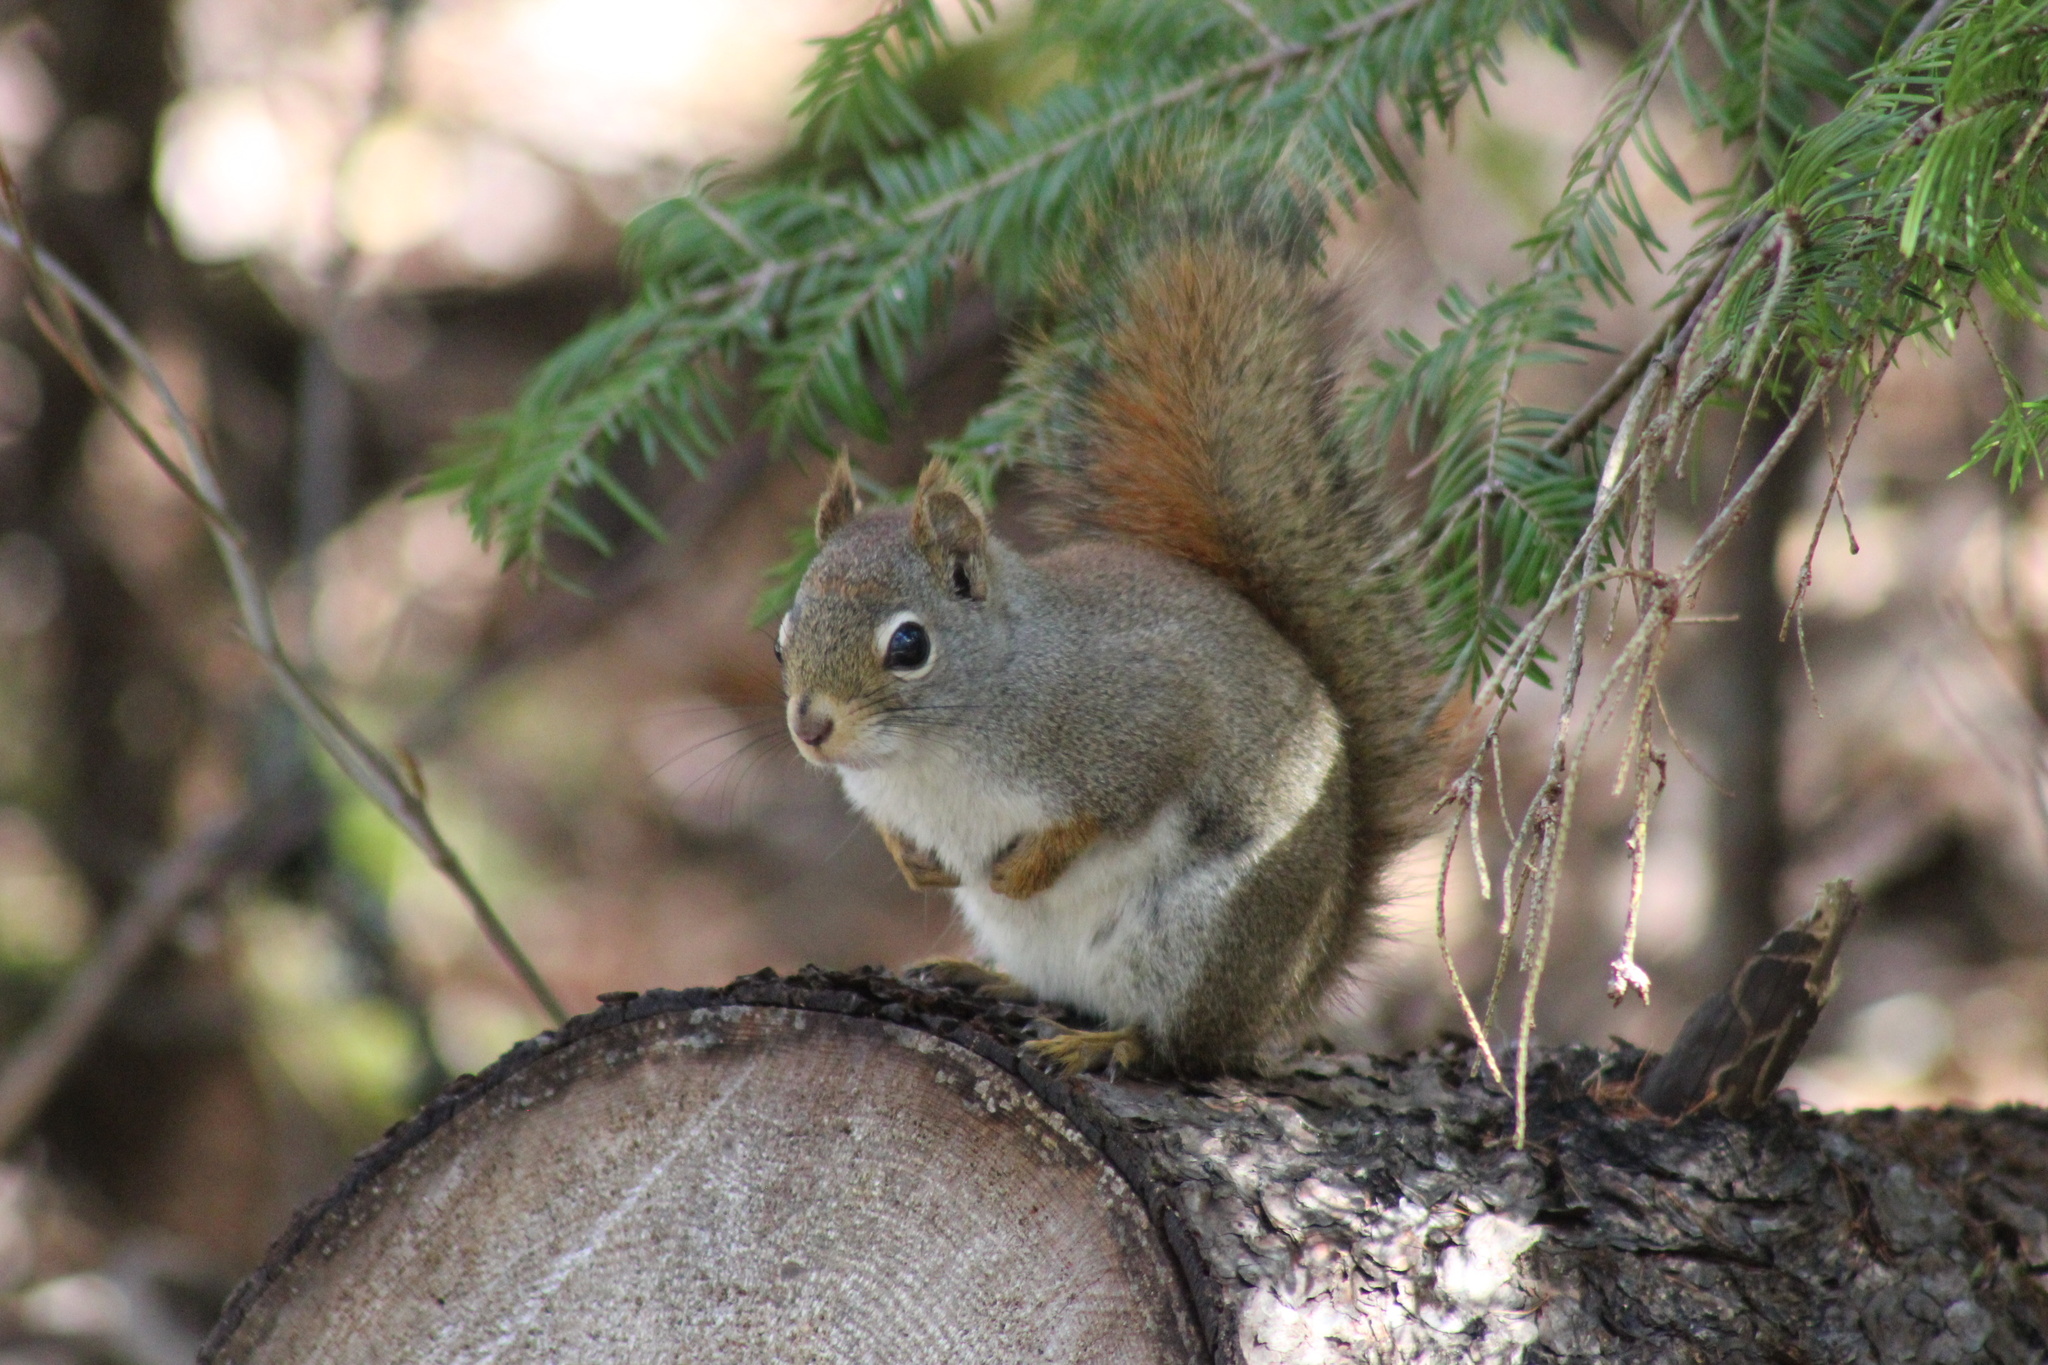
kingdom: Animalia
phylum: Chordata
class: Mammalia
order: Rodentia
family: Sciuridae
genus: Tamiasciurus
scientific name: Tamiasciurus hudsonicus
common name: Red squirrel
